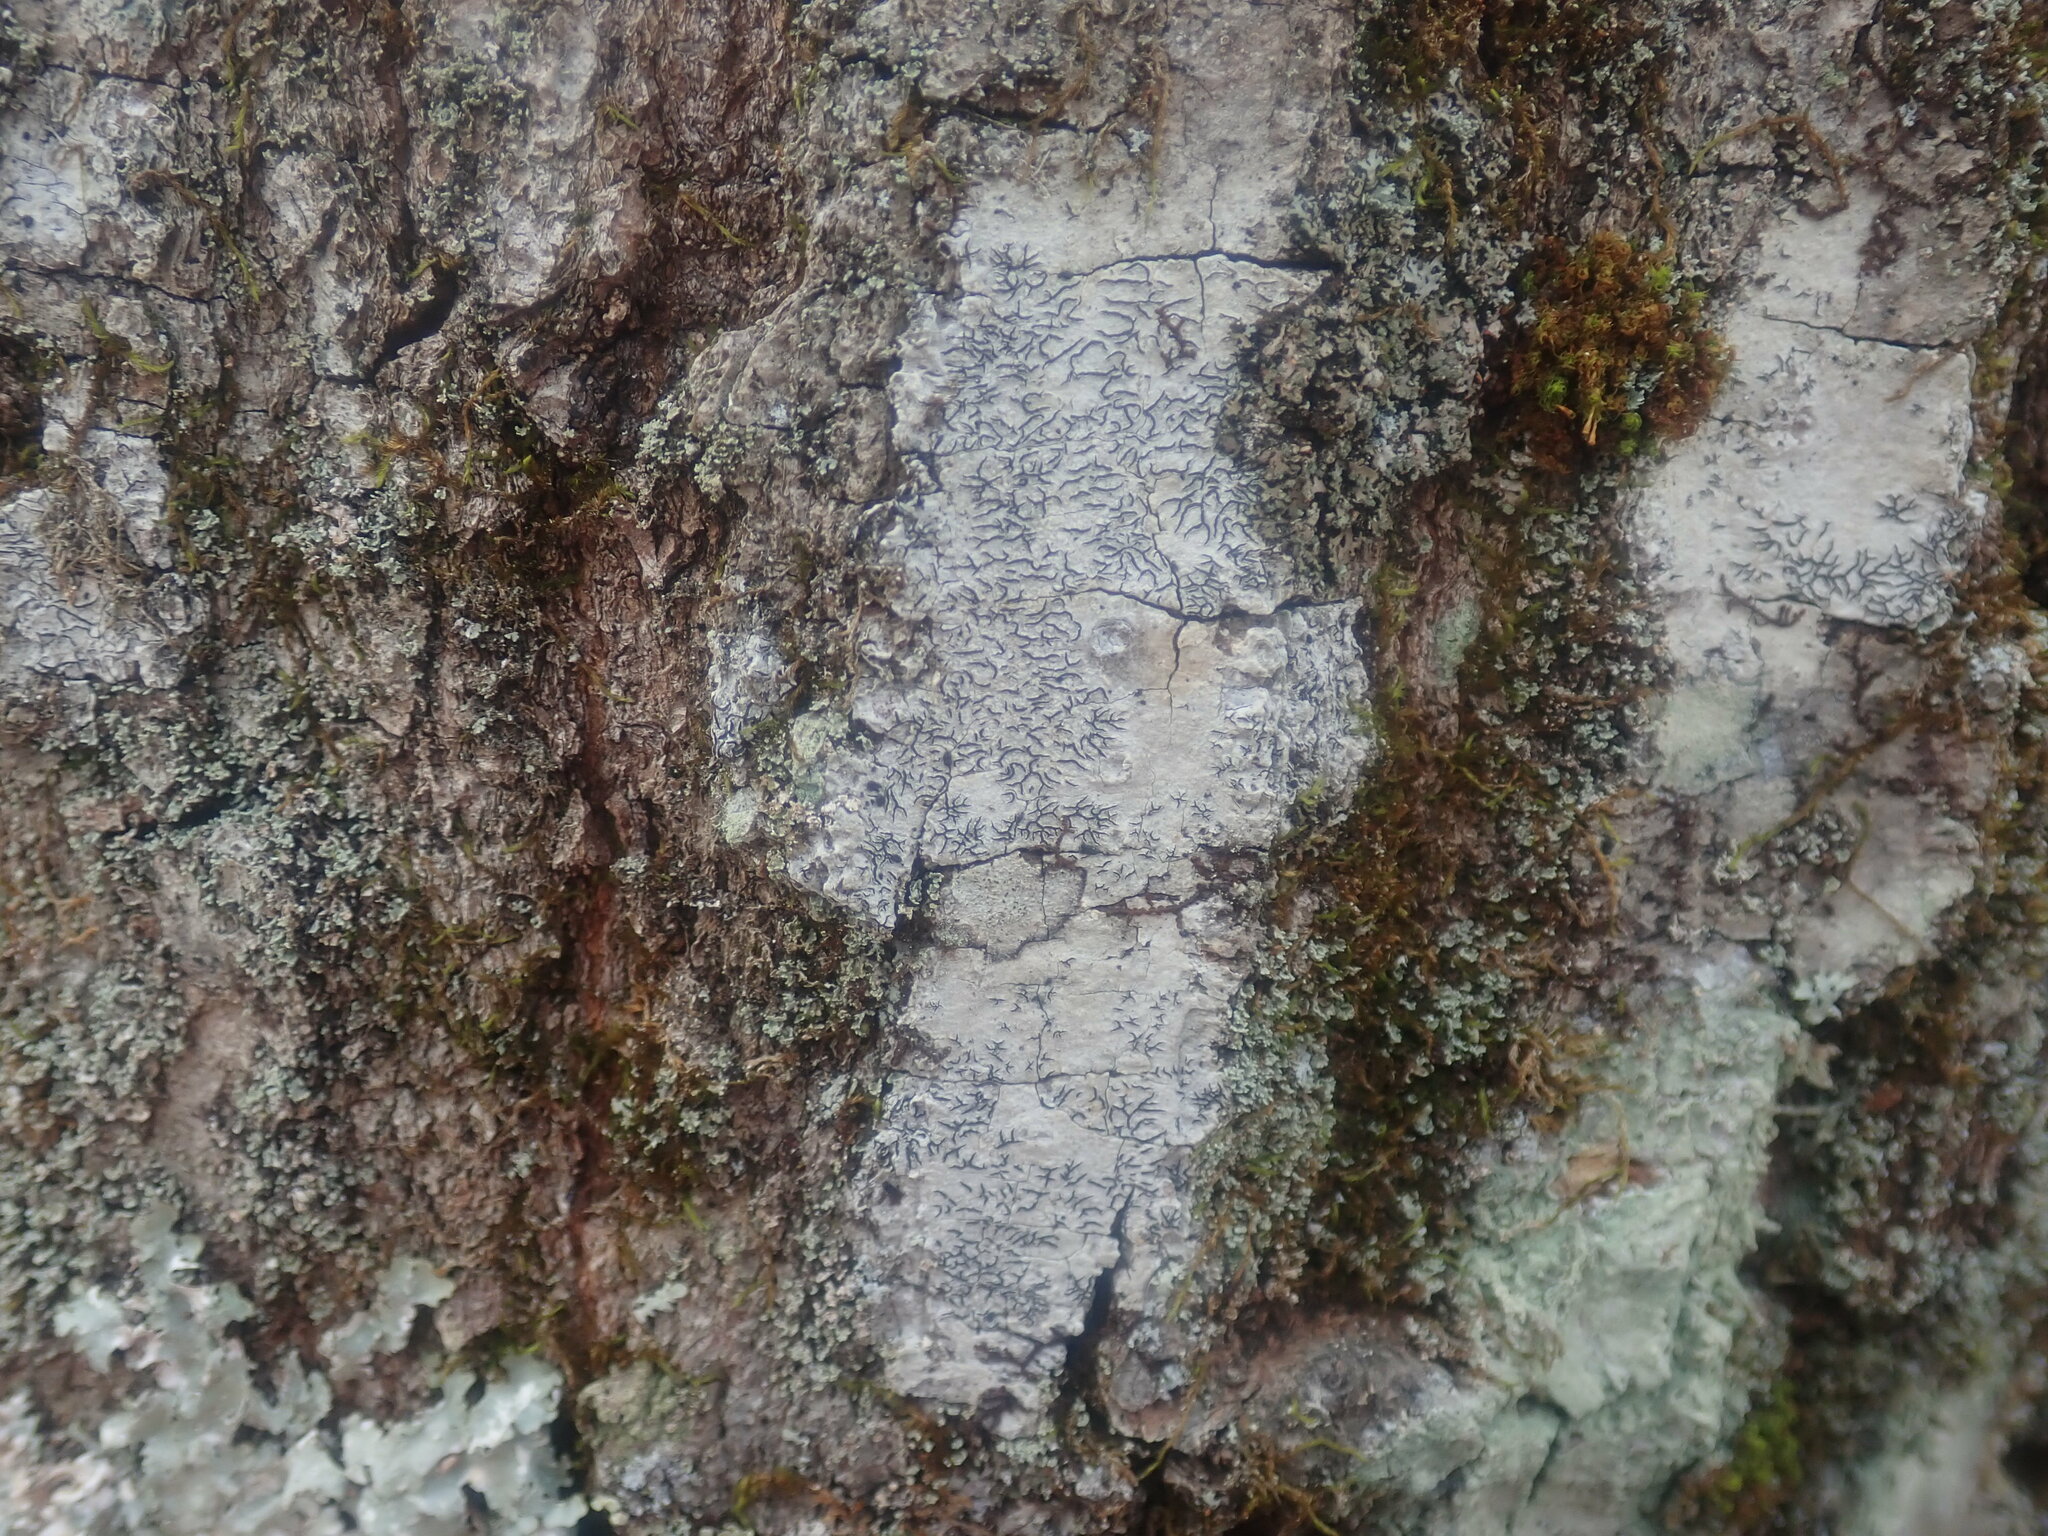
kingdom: Fungi
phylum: Ascomycota
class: Lecanoromycetes
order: Ostropales
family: Graphidaceae
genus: Graphis
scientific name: Graphis scripta
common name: Script lichen
